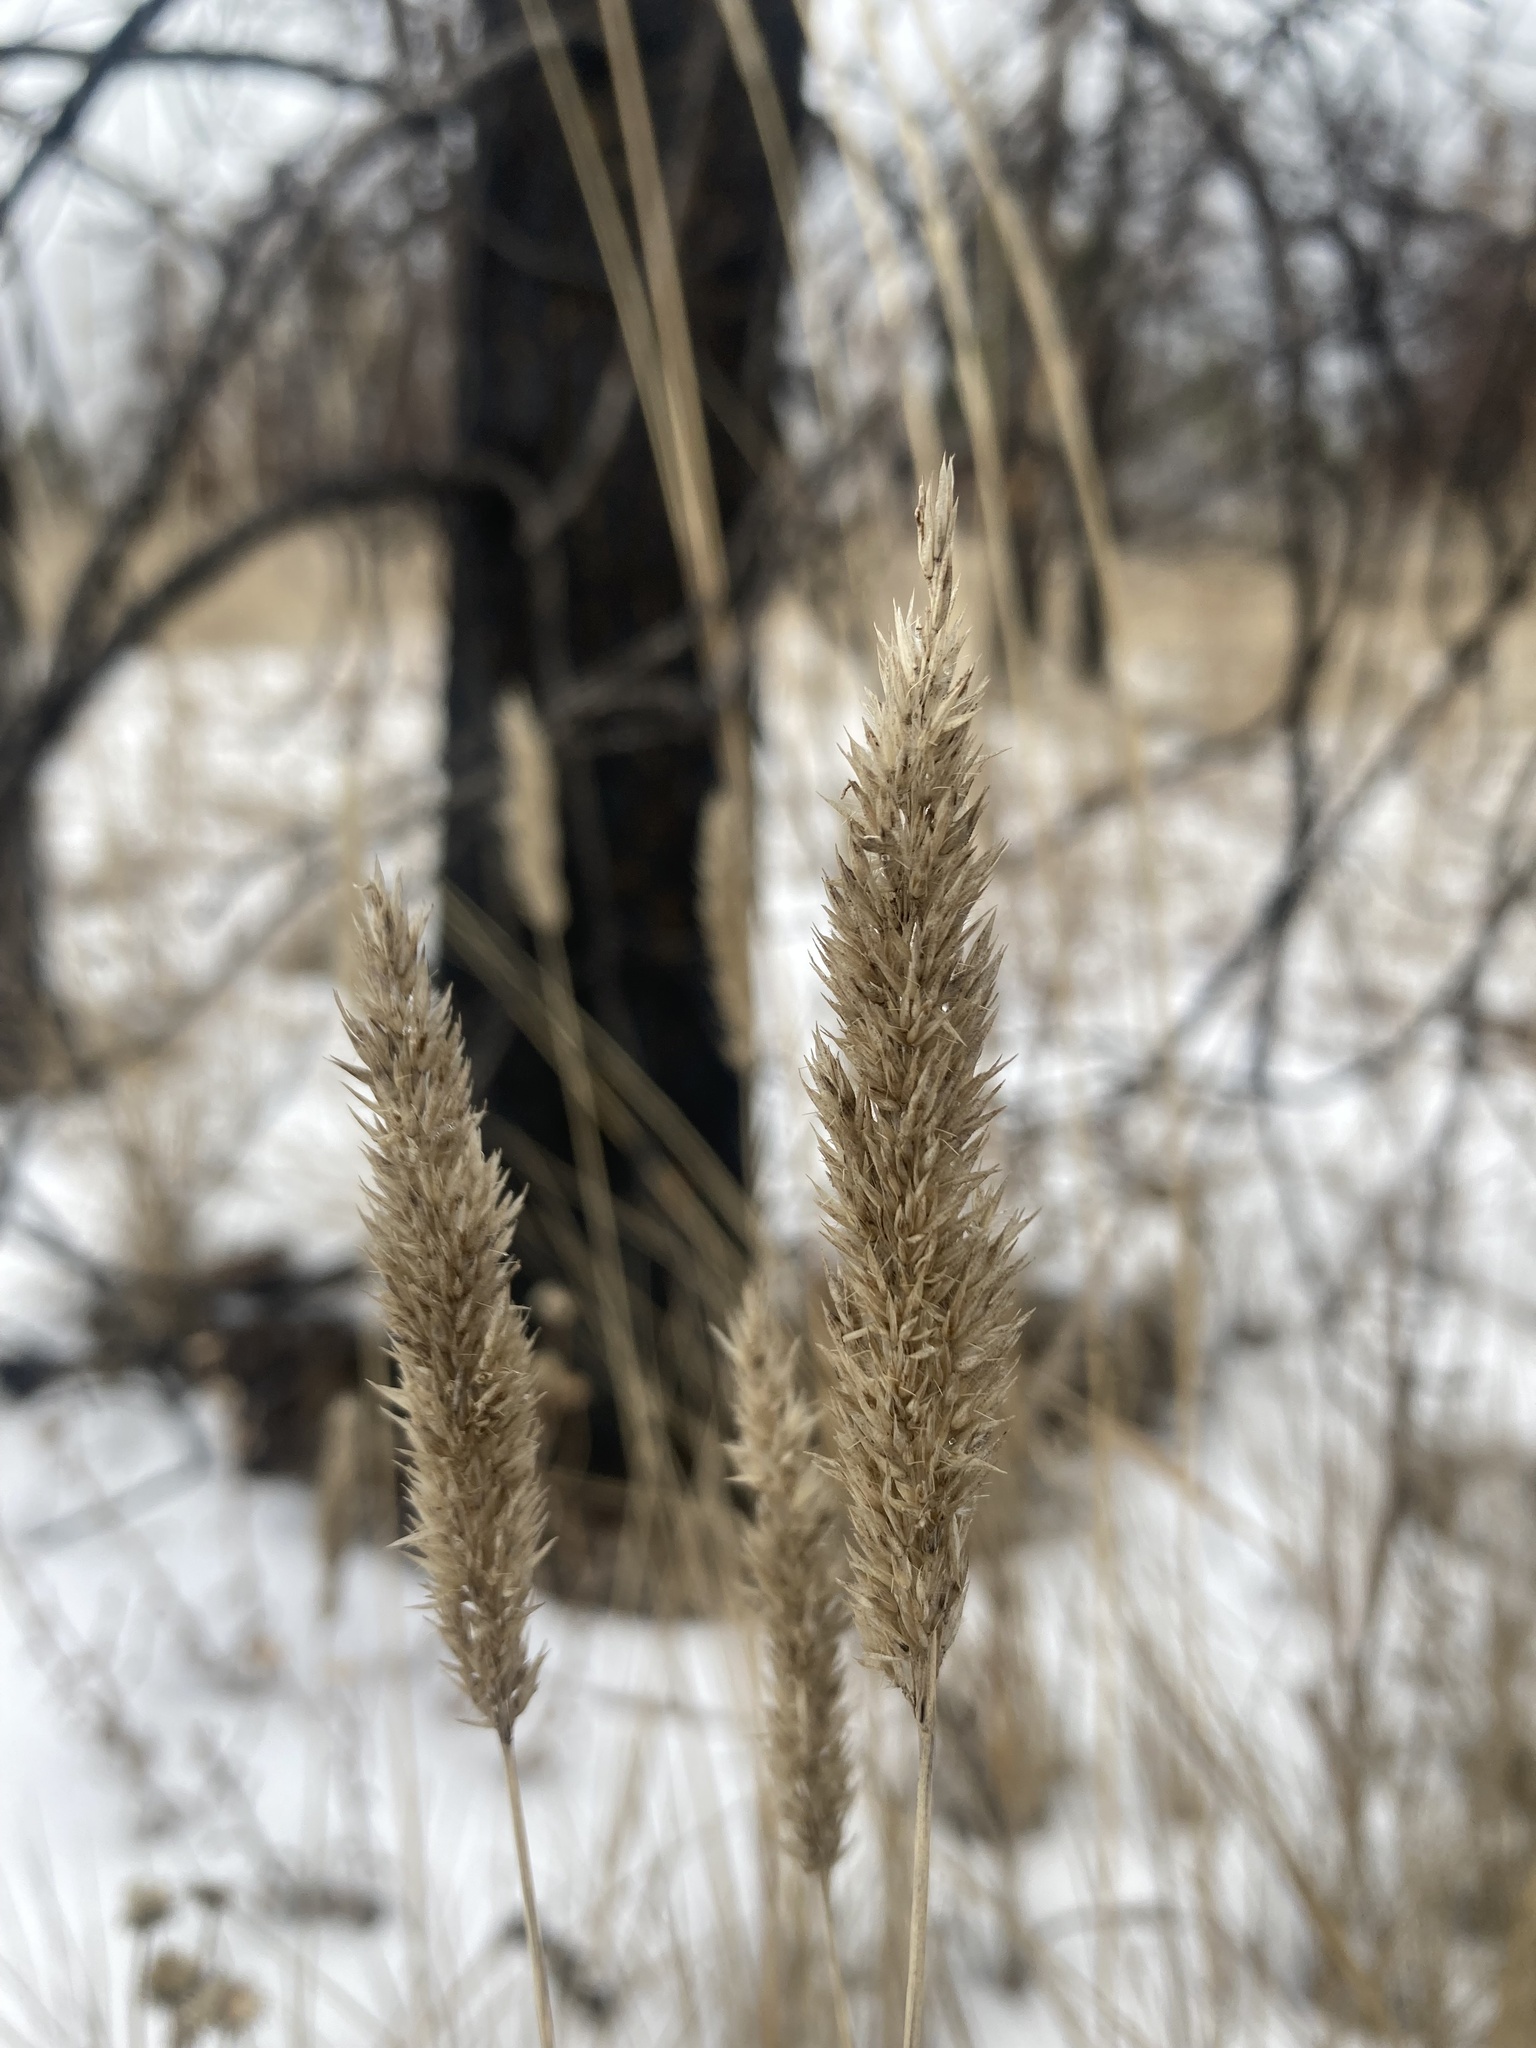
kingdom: Plantae
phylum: Tracheophyta
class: Liliopsida
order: Poales
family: Poaceae
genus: Calamagrostis
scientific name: Calamagrostis stricta
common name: Narrow small-reed
